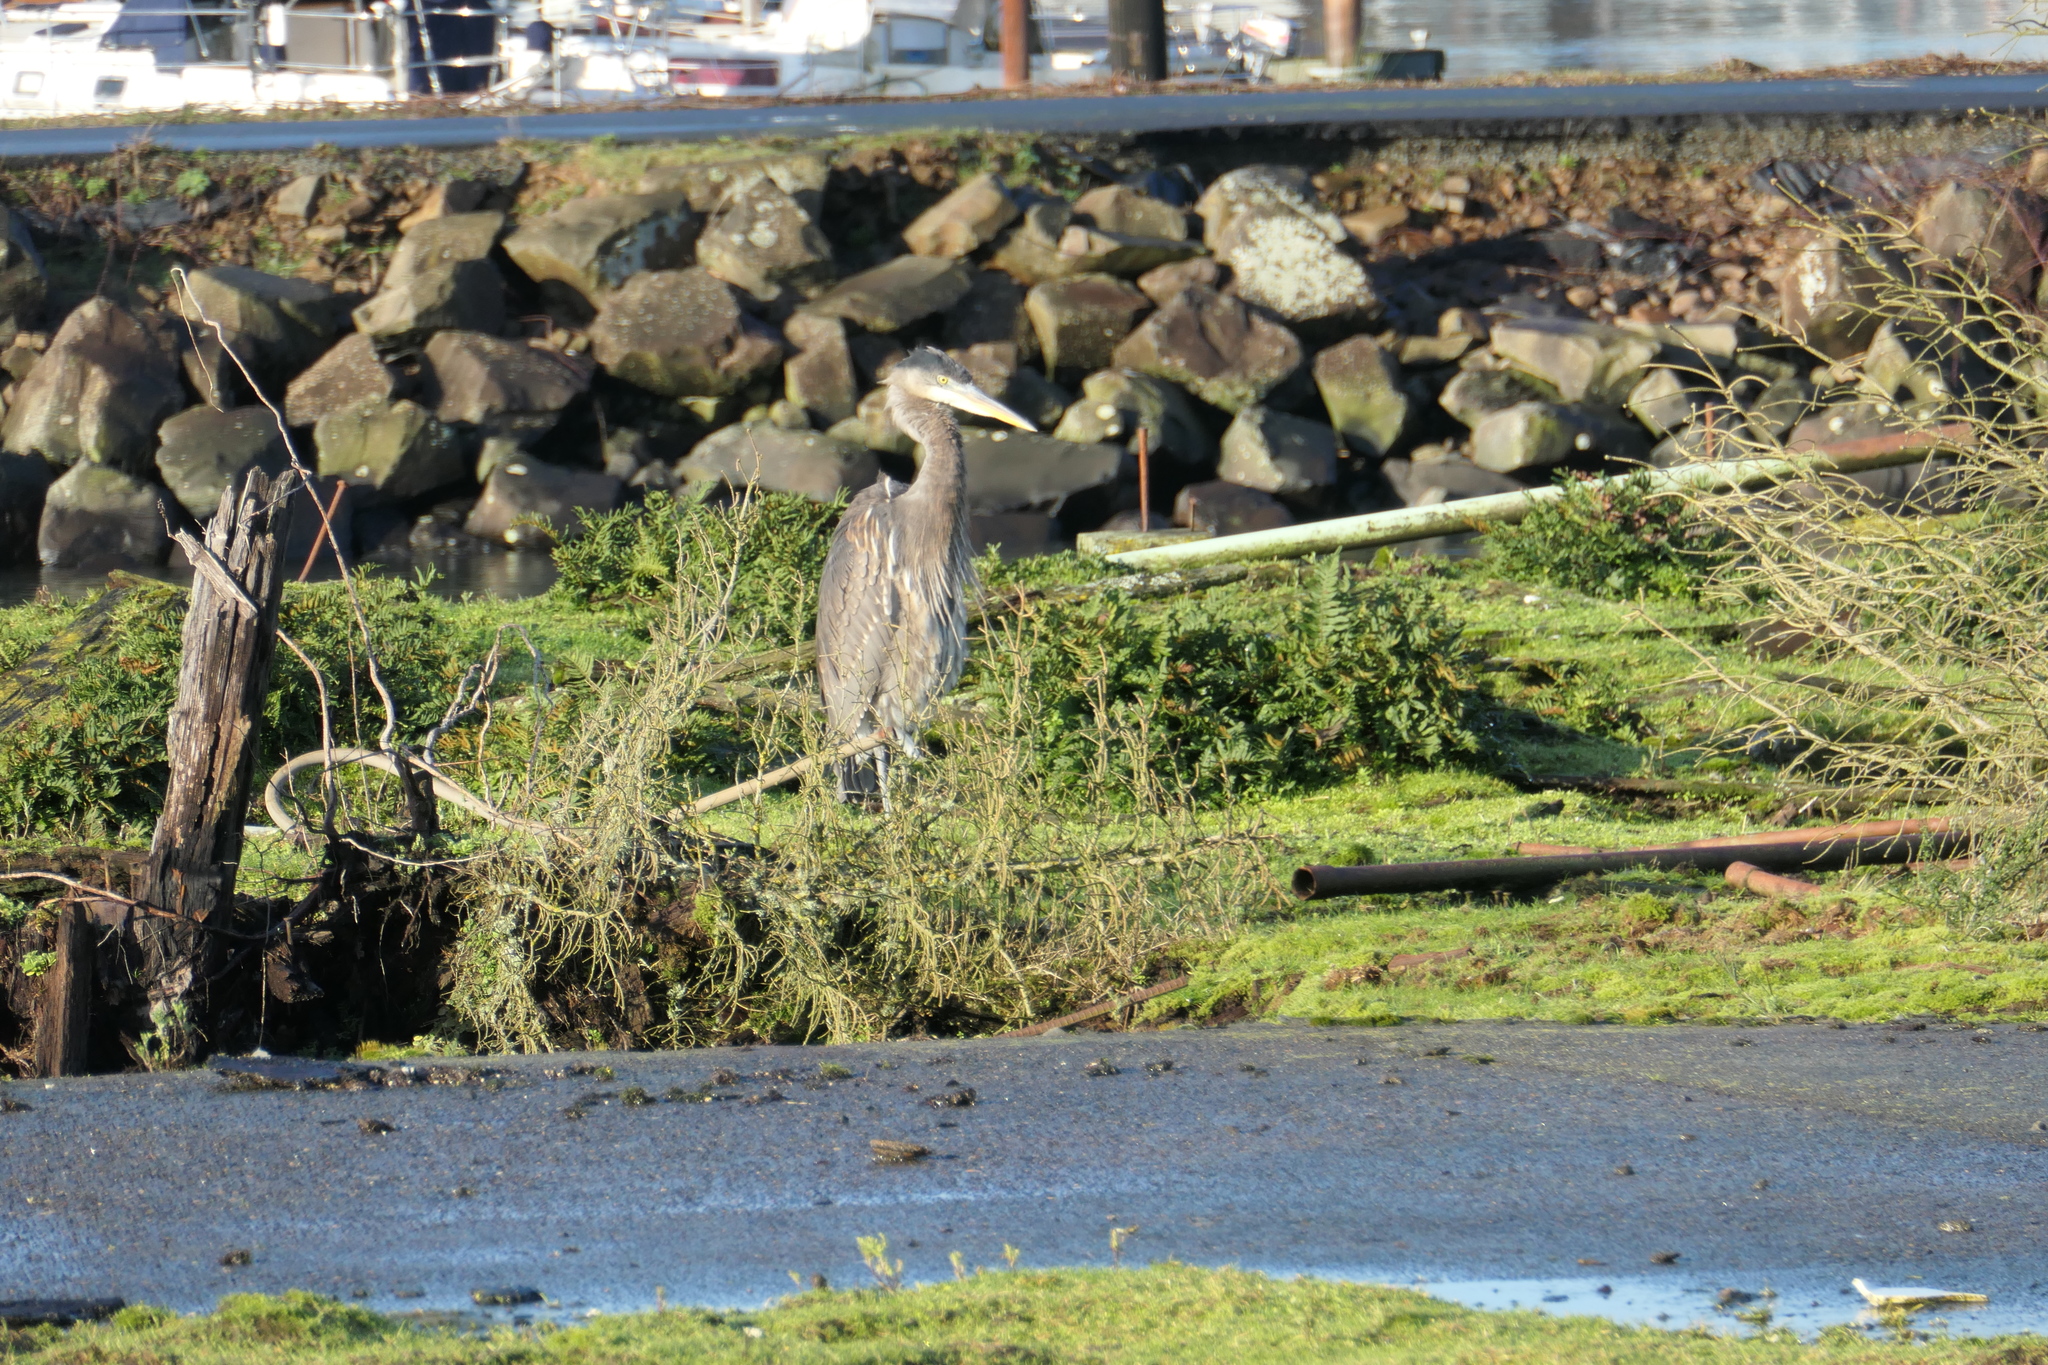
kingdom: Animalia
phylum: Chordata
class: Aves
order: Pelecaniformes
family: Ardeidae
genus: Ardea
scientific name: Ardea herodias
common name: Great blue heron
